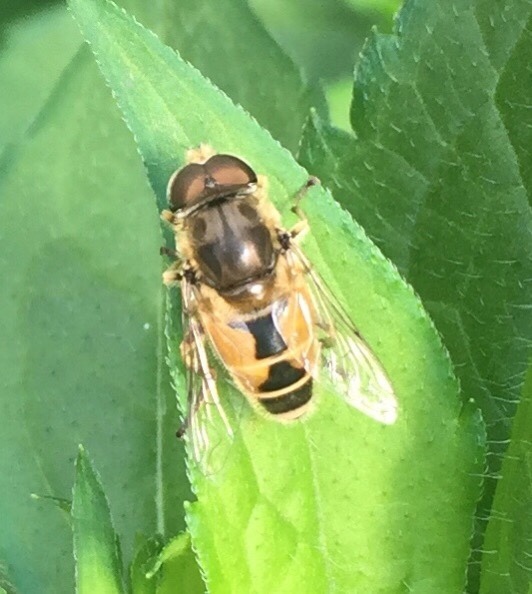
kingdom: Animalia
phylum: Arthropoda
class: Insecta
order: Diptera
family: Syrphidae
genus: Eristalis
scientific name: Eristalis arbustorum
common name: Hover fly
